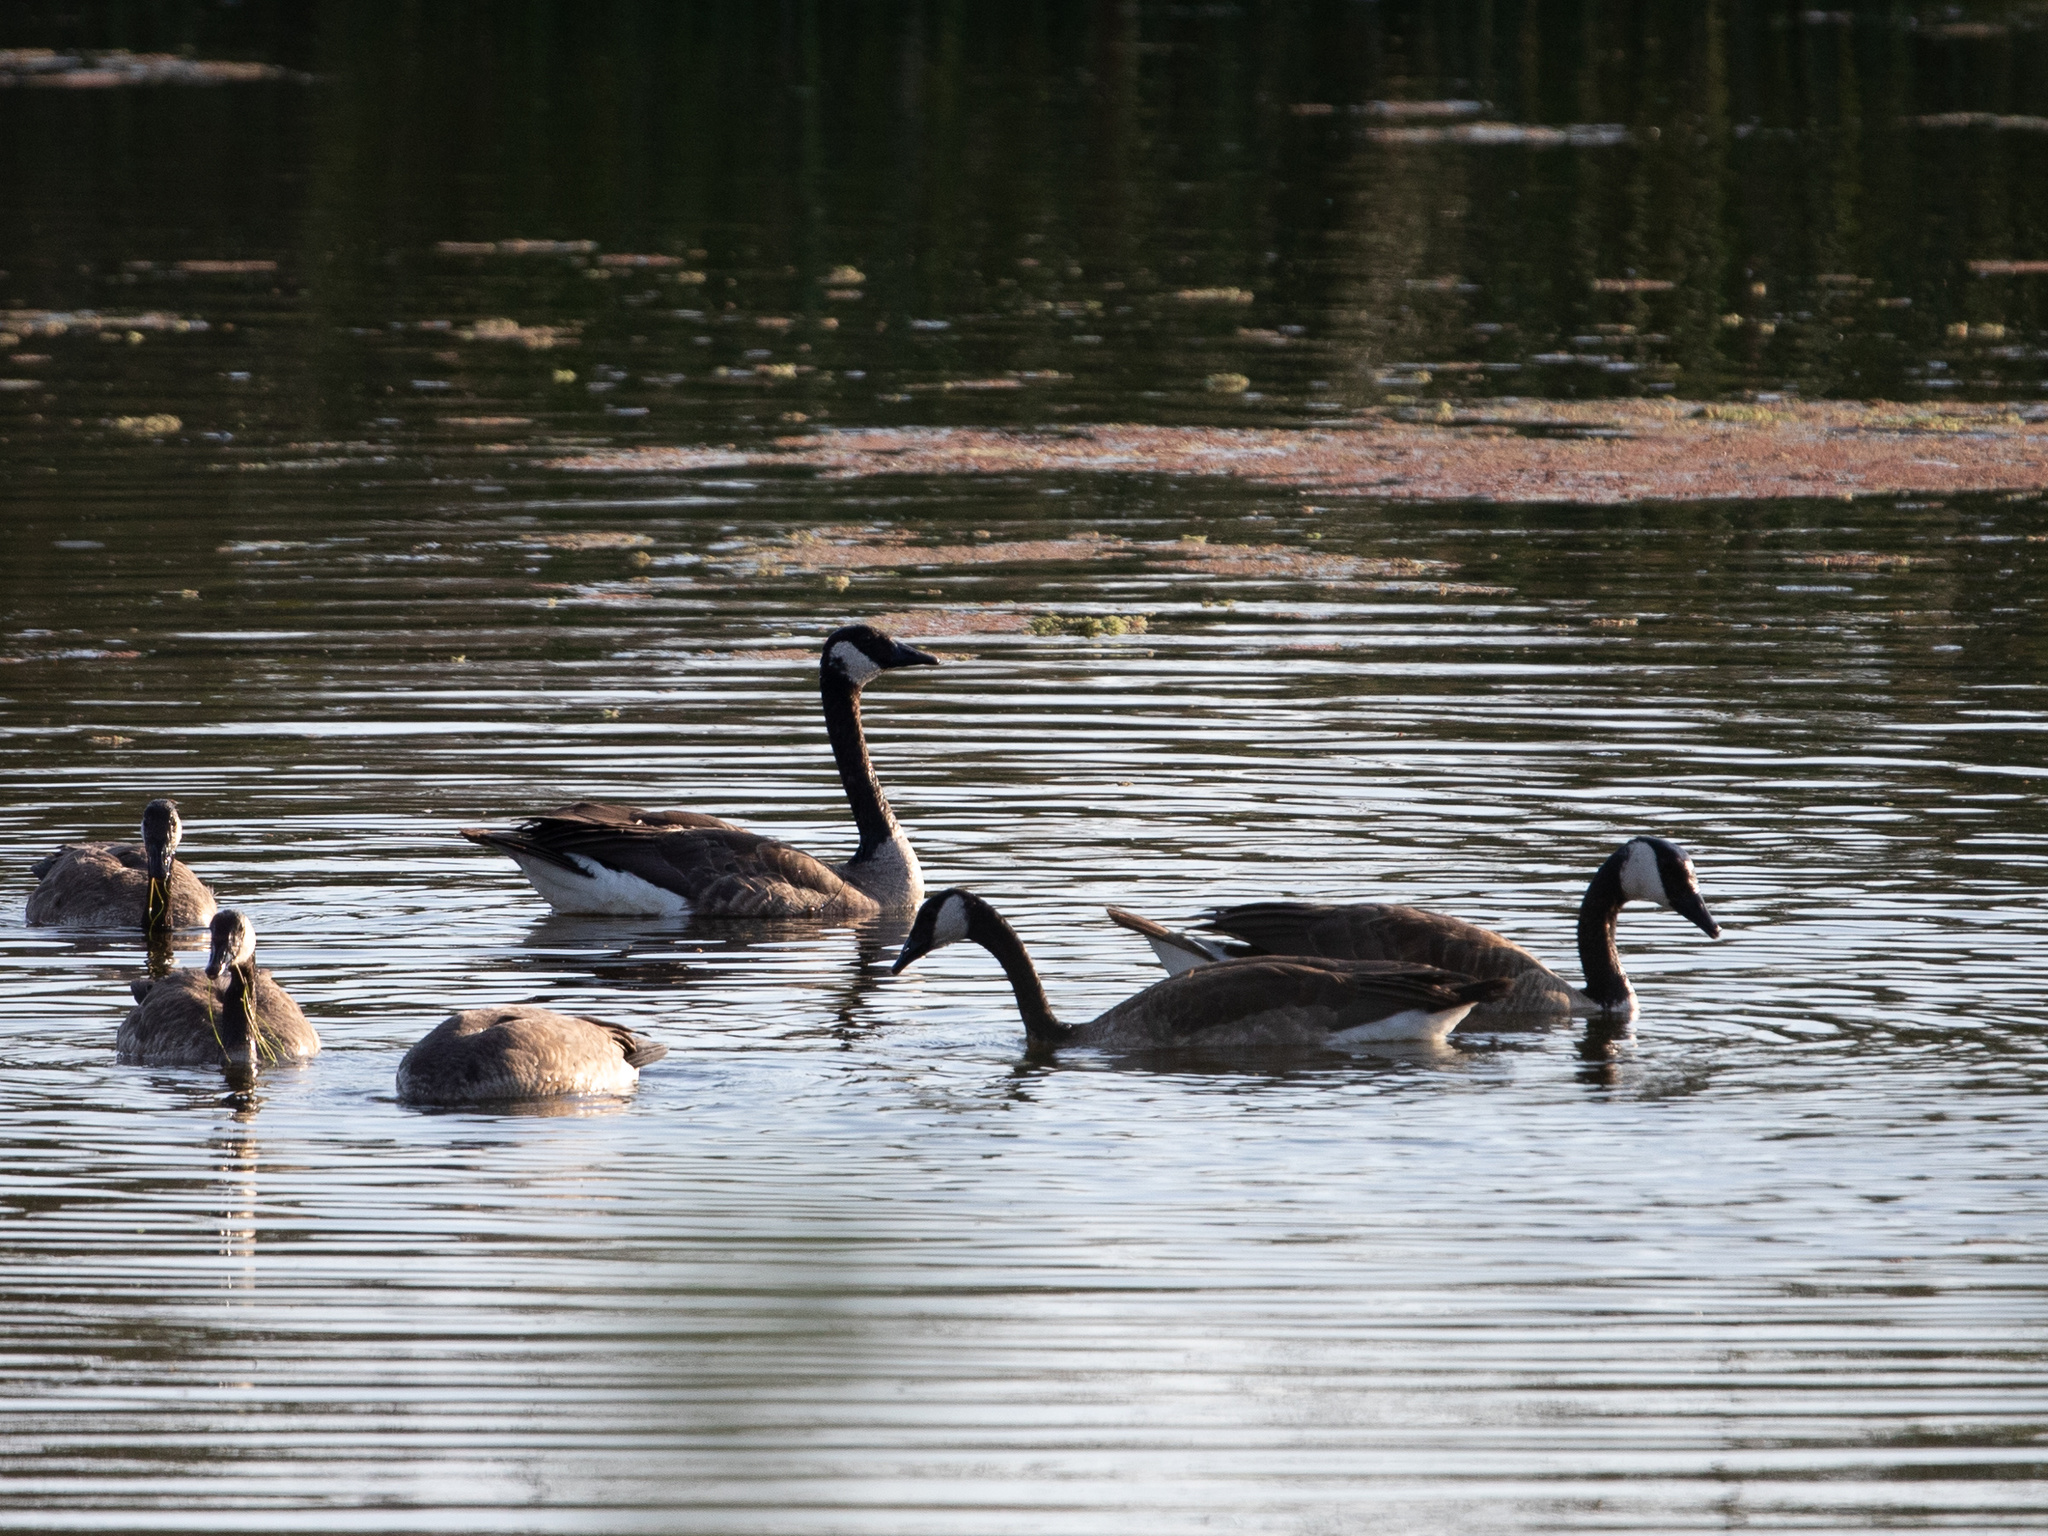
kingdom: Animalia
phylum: Chordata
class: Aves
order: Anseriformes
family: Anatidae
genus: Branta
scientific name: Branta canadensis
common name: Canada goose
